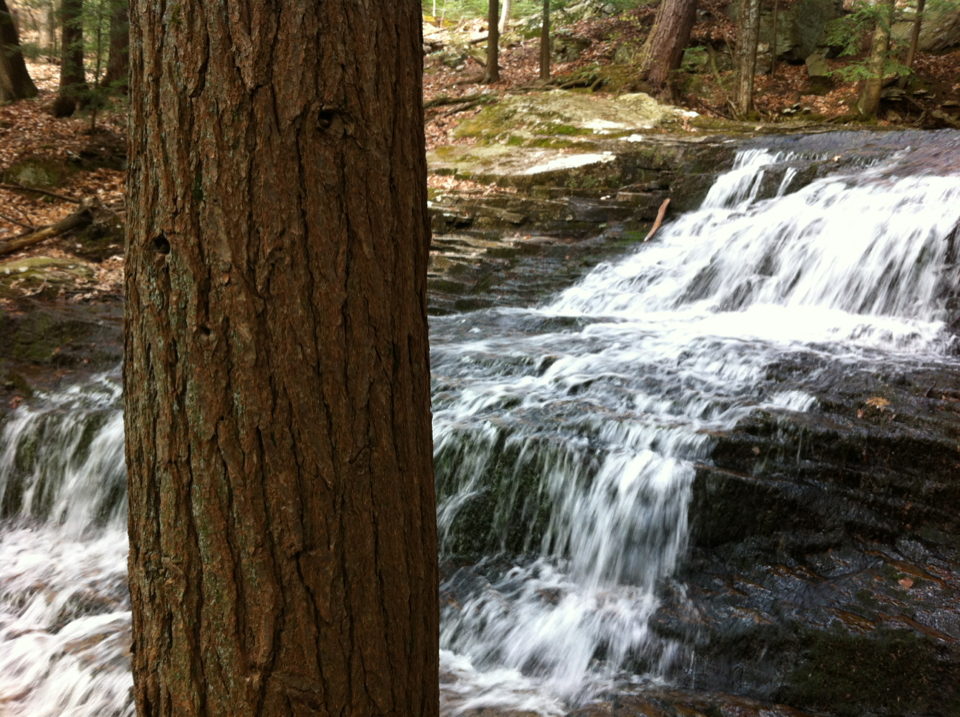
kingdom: Plantae
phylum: Tracheophyta
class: Pinopsida
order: Pinales
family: Pinaceae
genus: Tsuga
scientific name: Tsuga canadensis
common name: Eastern hemlock
